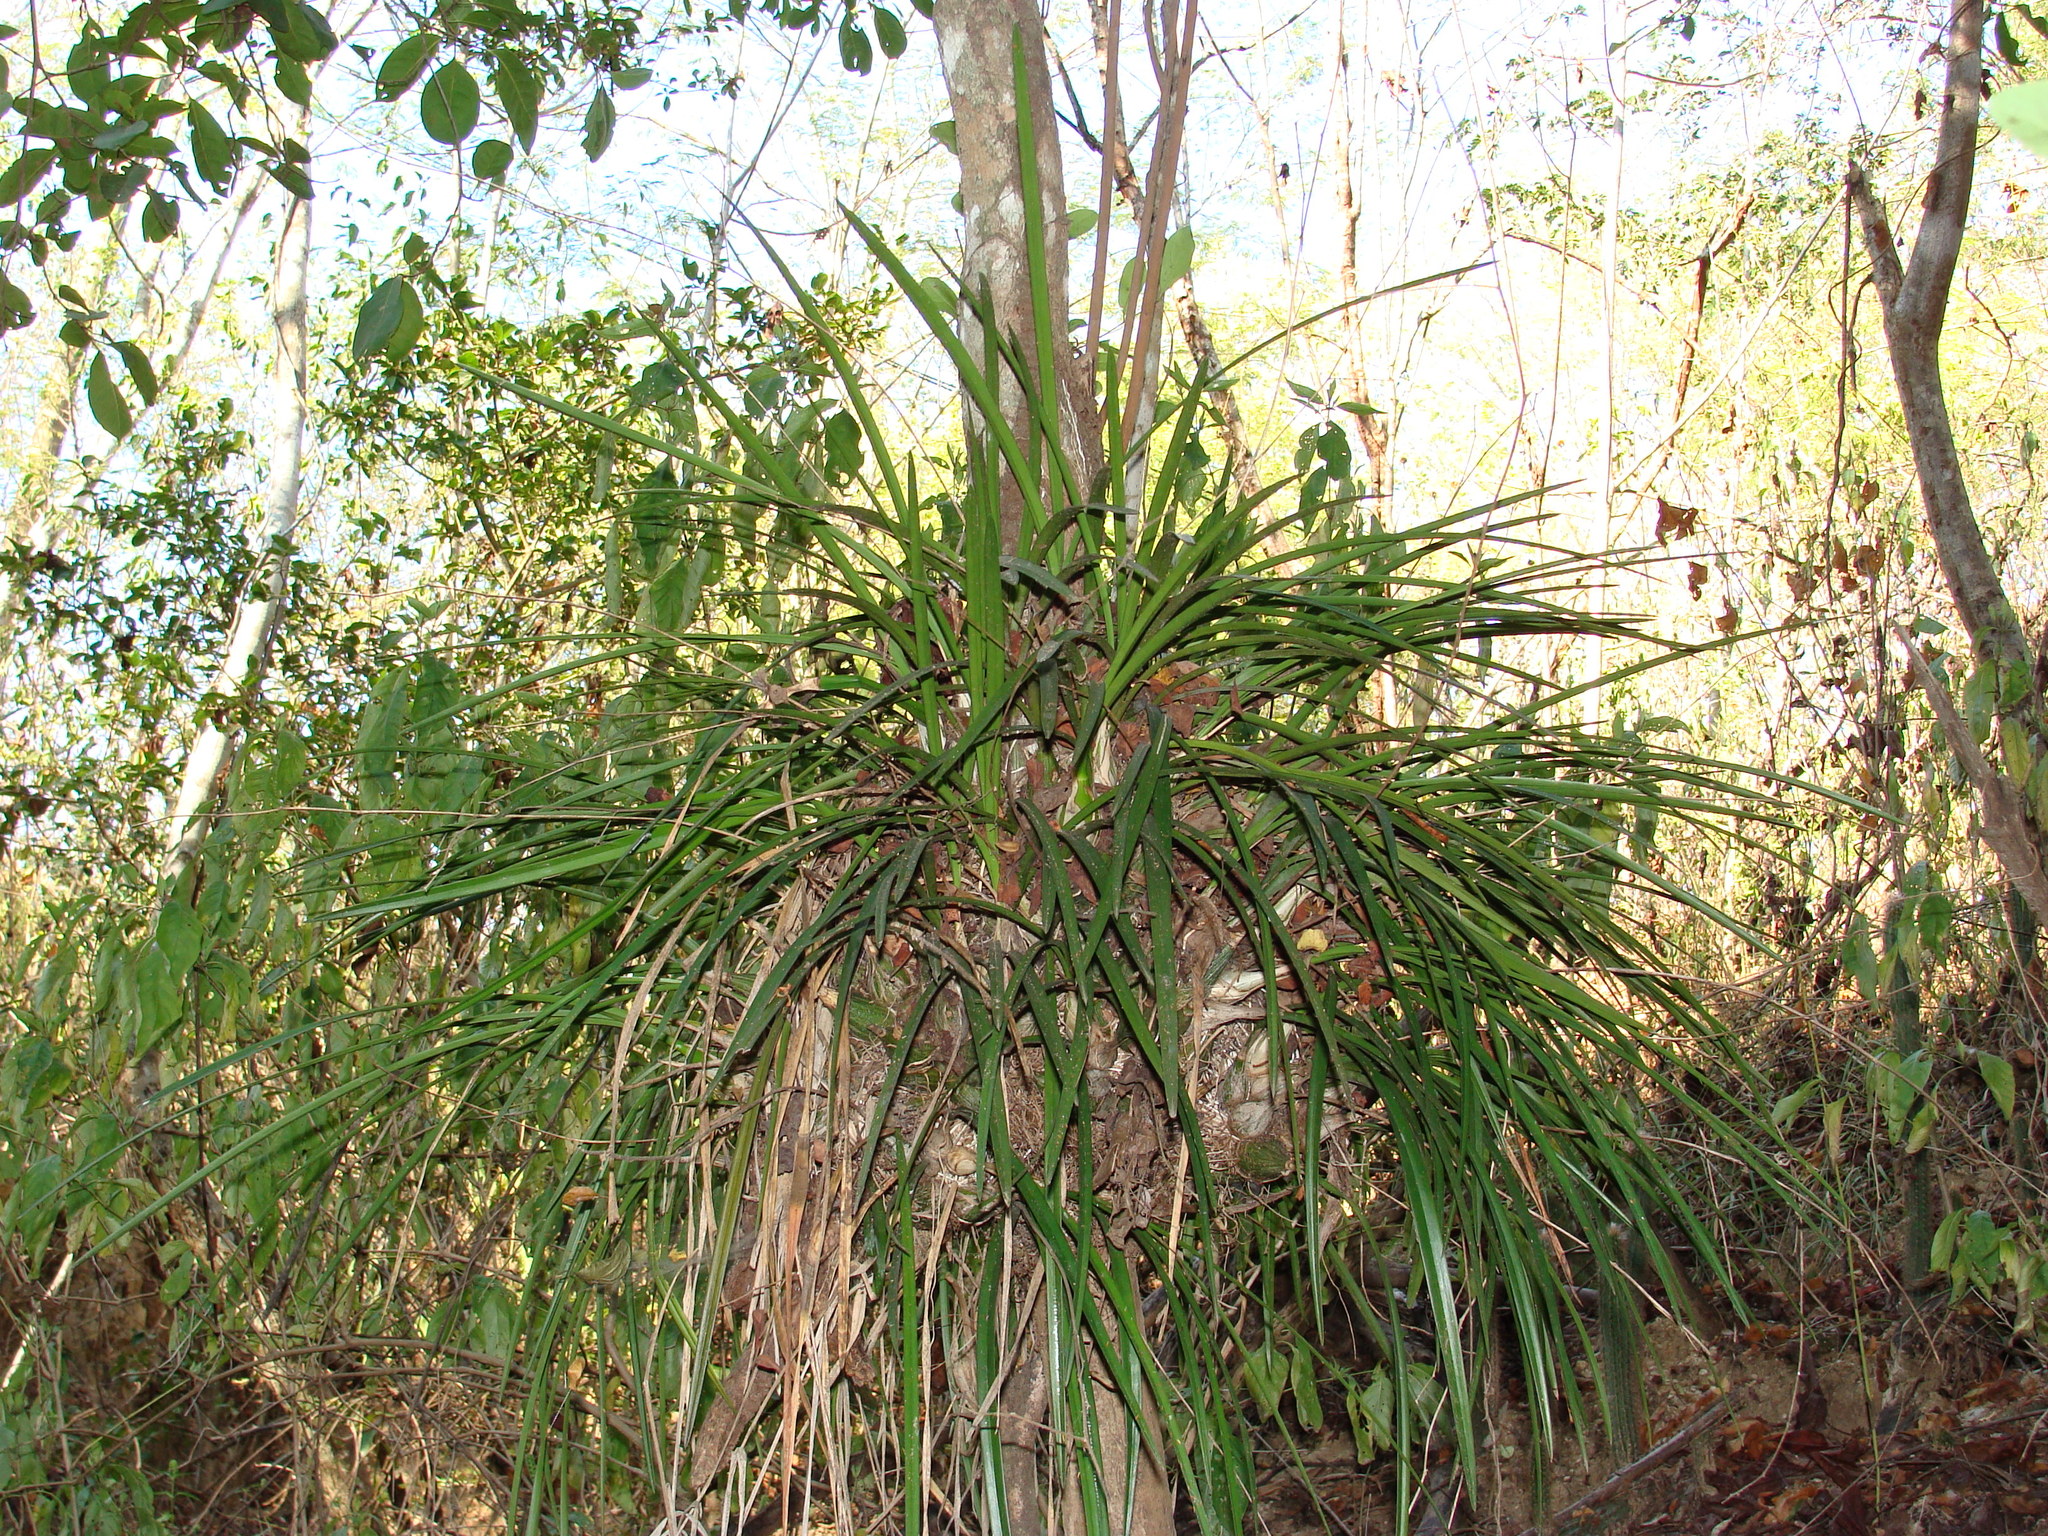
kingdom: Plantae
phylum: Tracheophyta
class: Liliopsida
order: Asparagales
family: Orchidaceae
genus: Encyclia
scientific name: Encyclia enriquearcilae
